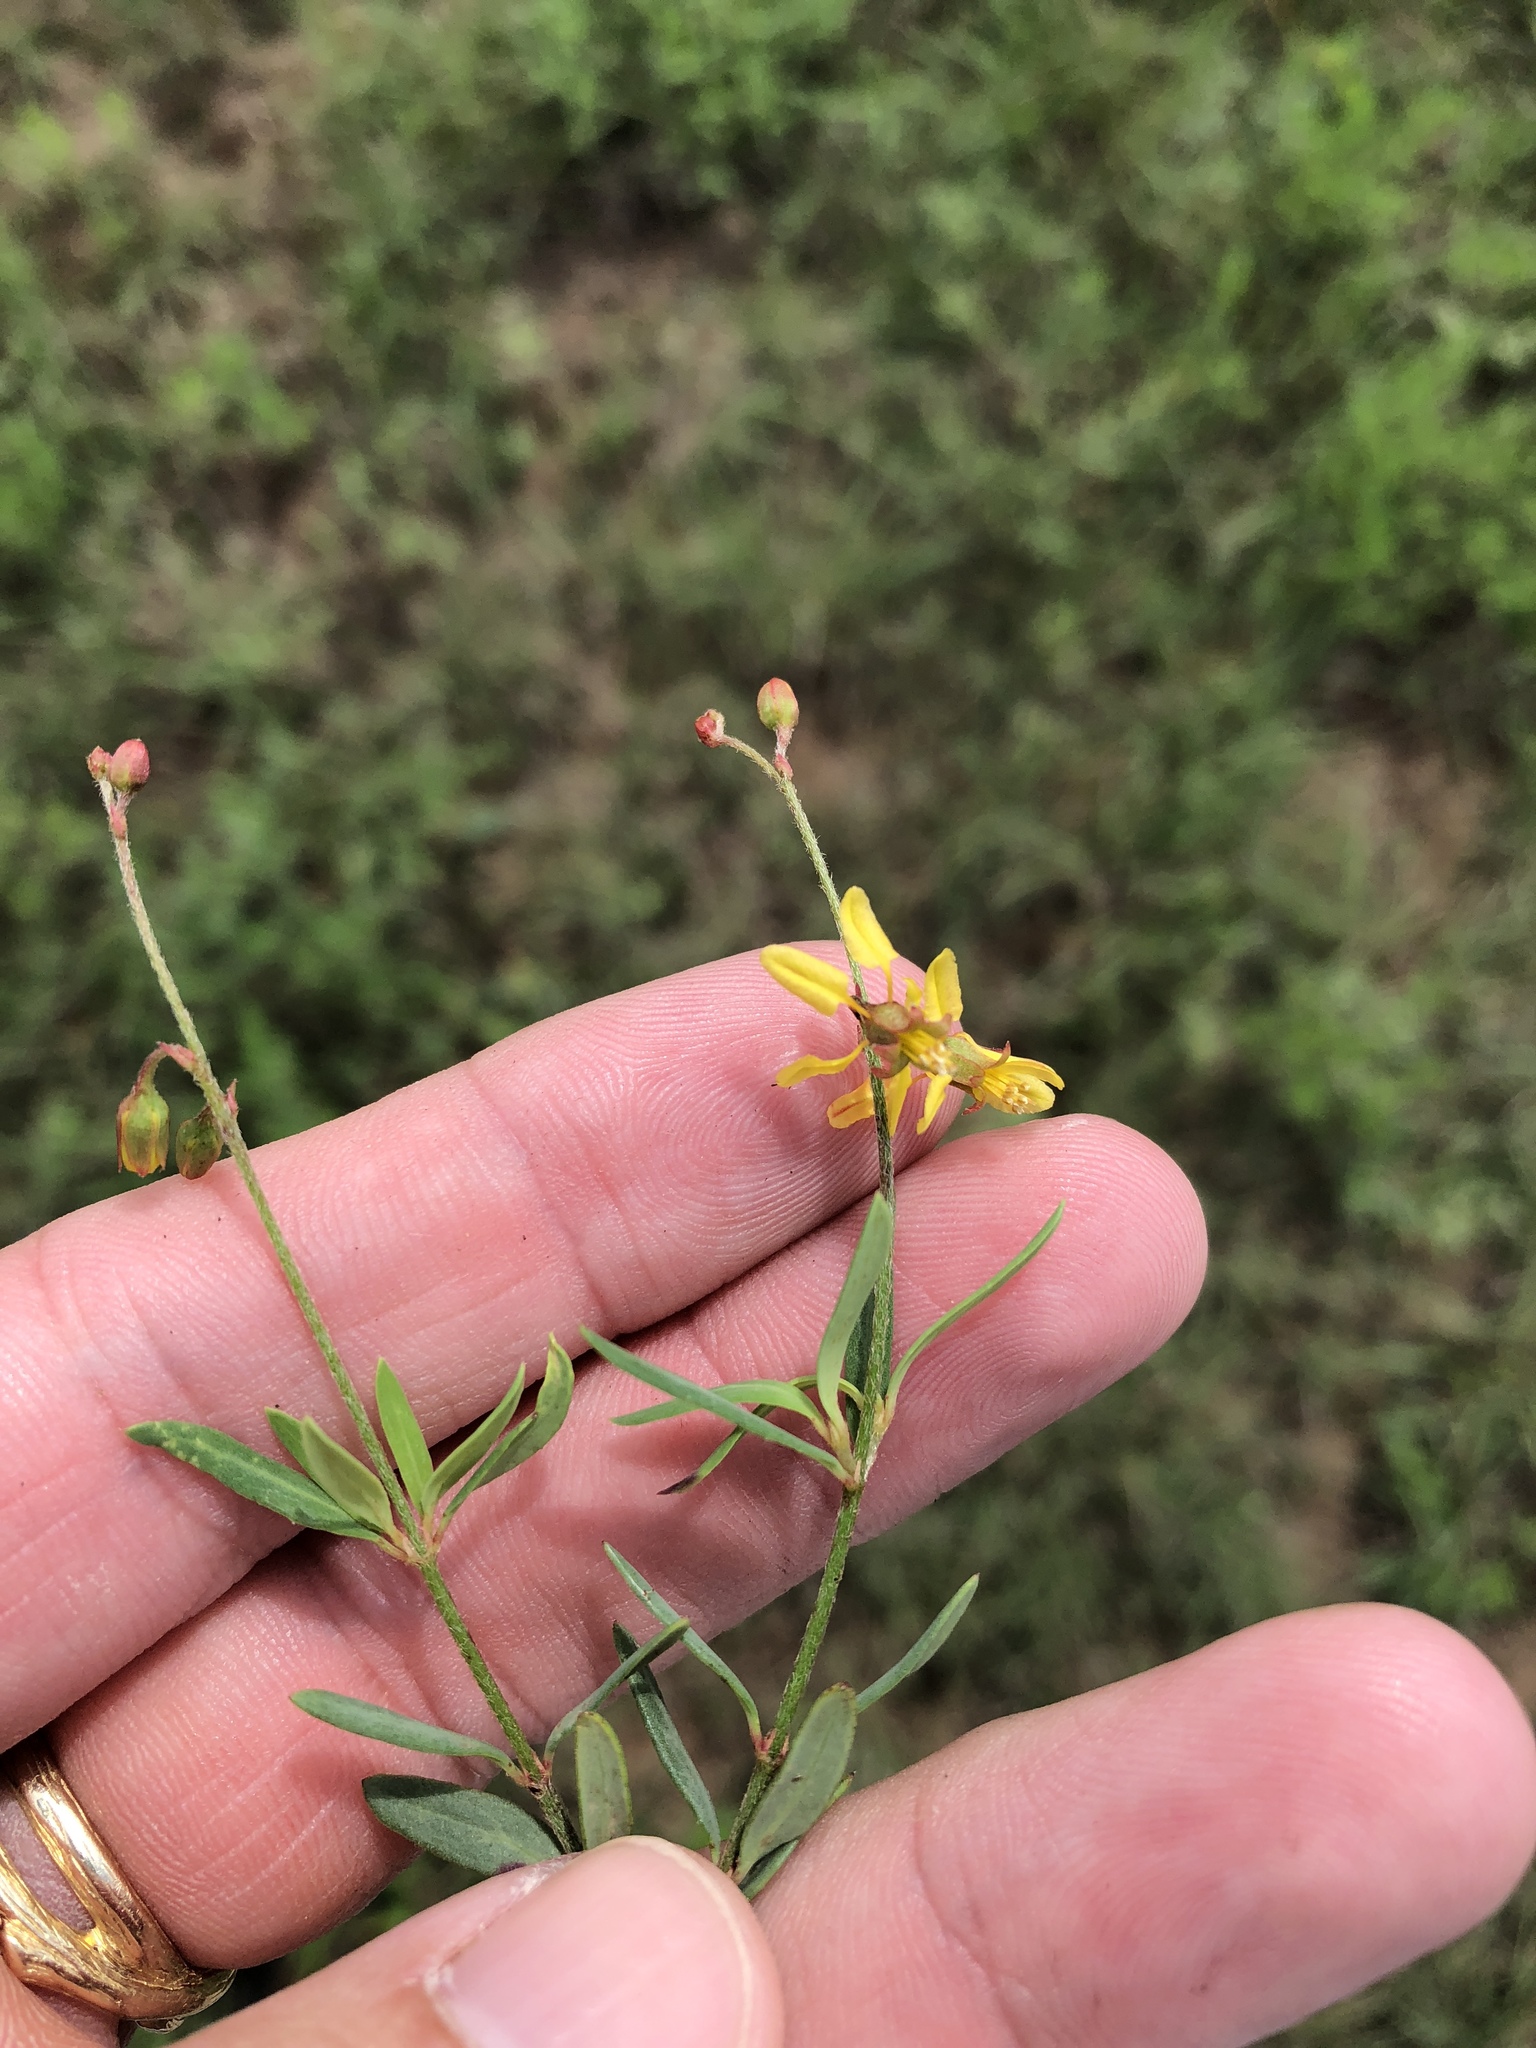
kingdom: Plantae
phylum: Tracheophyta
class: Magnoliopsida
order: Malpighiales
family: Malpighiaceae
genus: Galphimia
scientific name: Galphimia angustifolia
